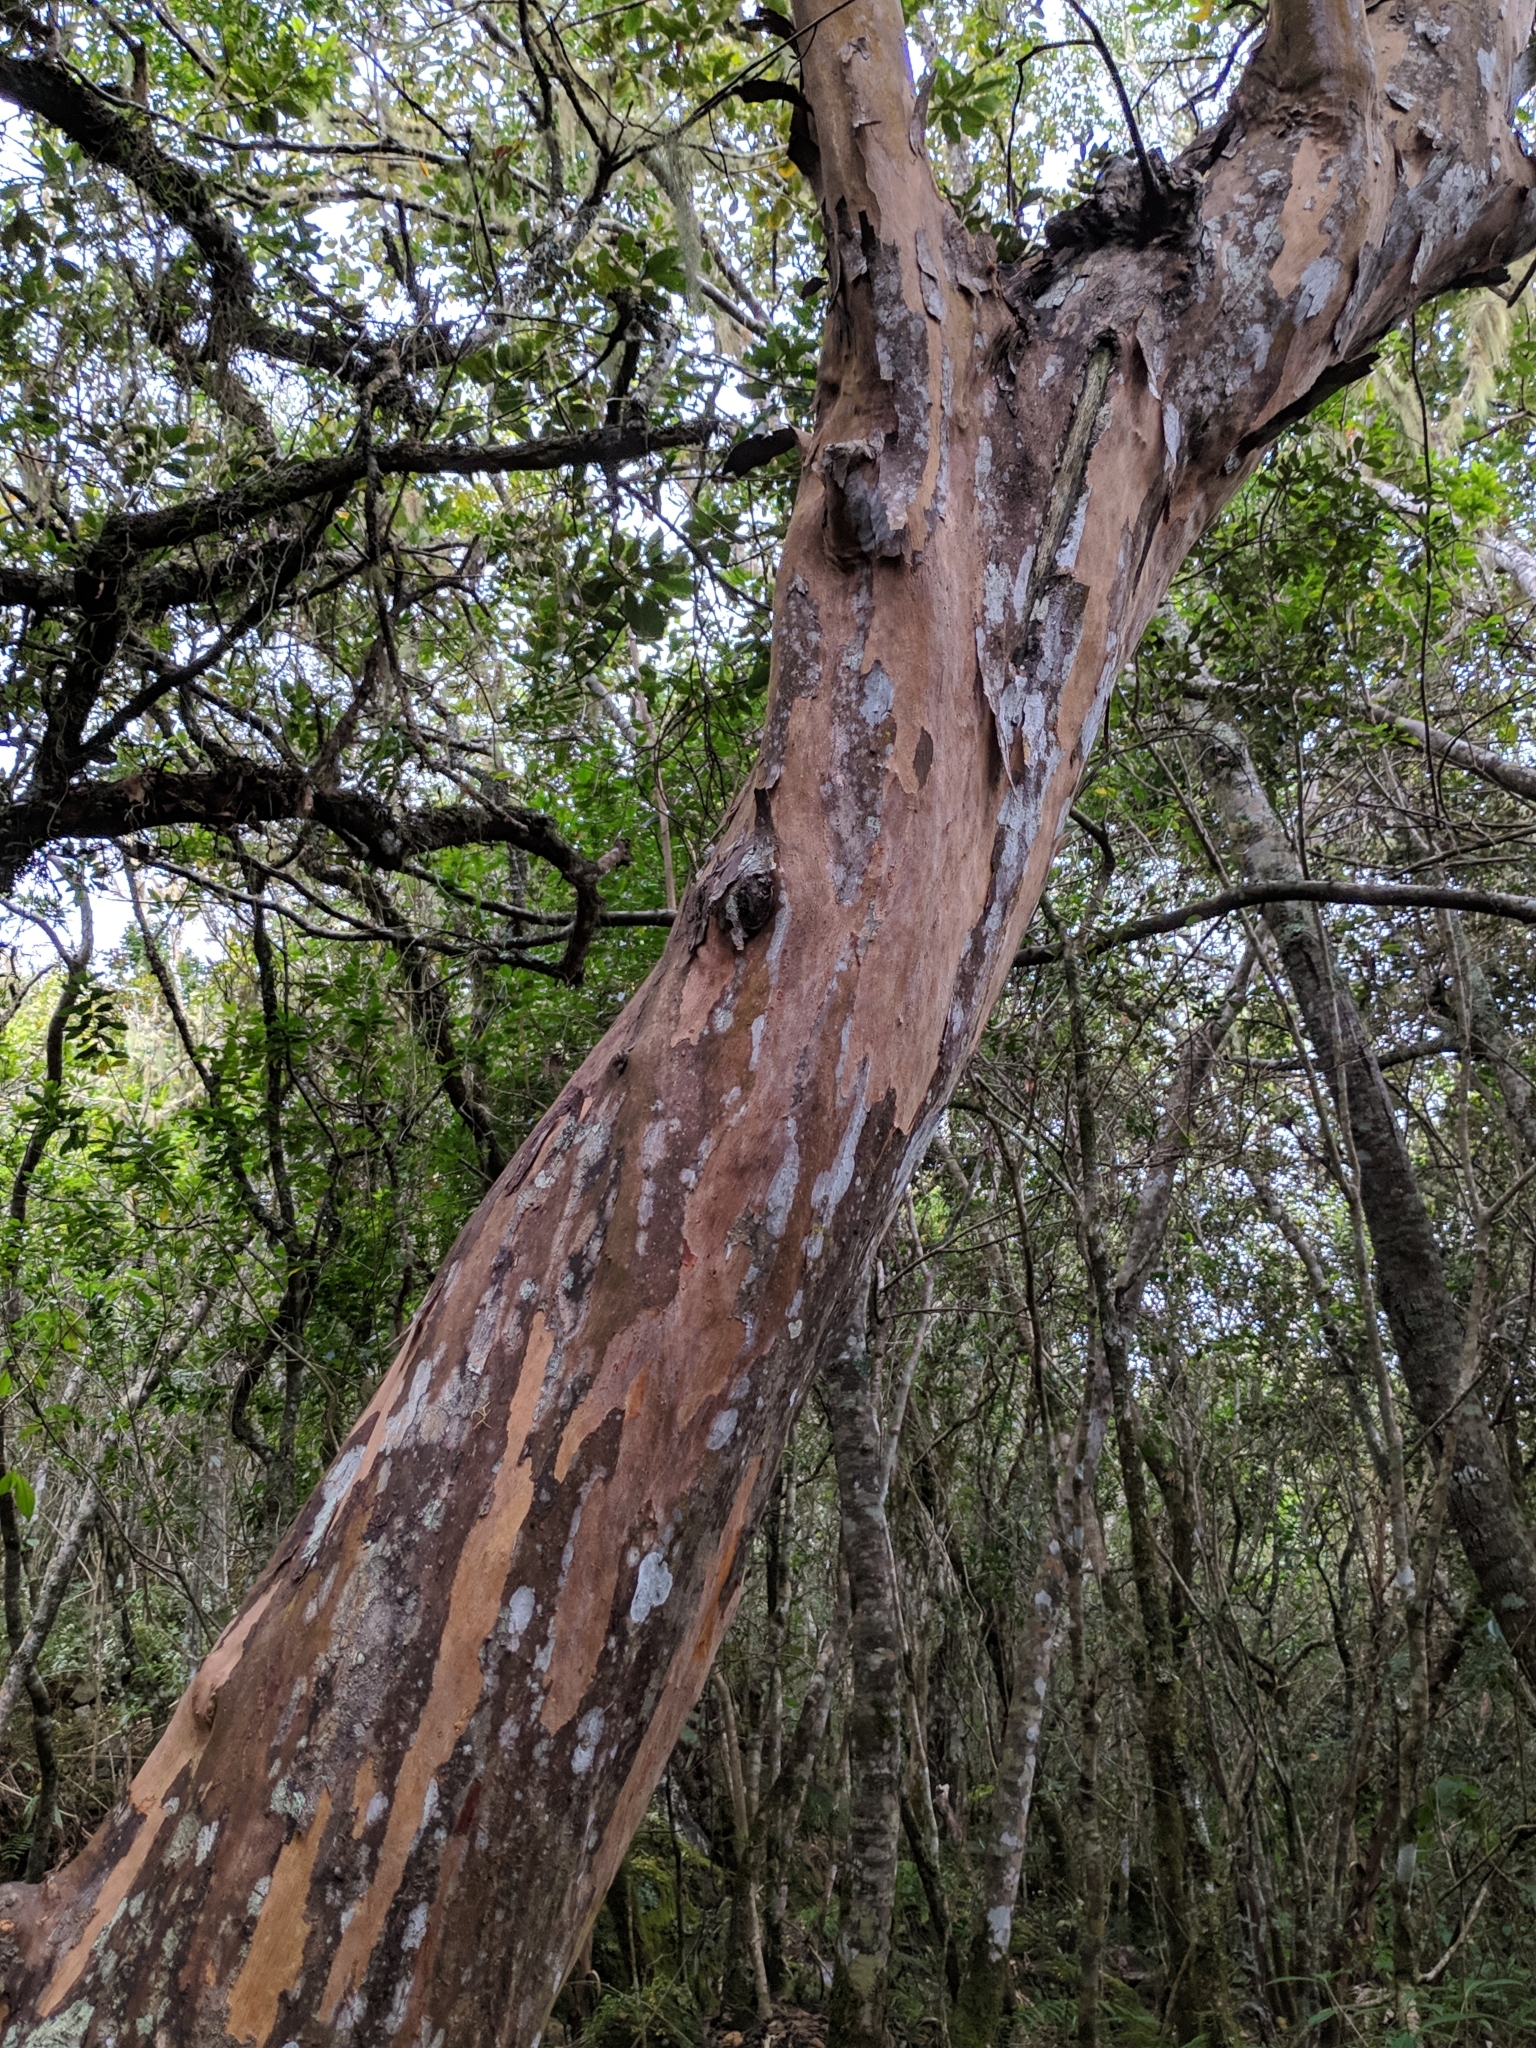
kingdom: Plantae
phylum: Tracheophyta
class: Magnoliopsida
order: Crossosomatales
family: Aphloiaceae
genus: Aphloia
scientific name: Aphloia theiformis
